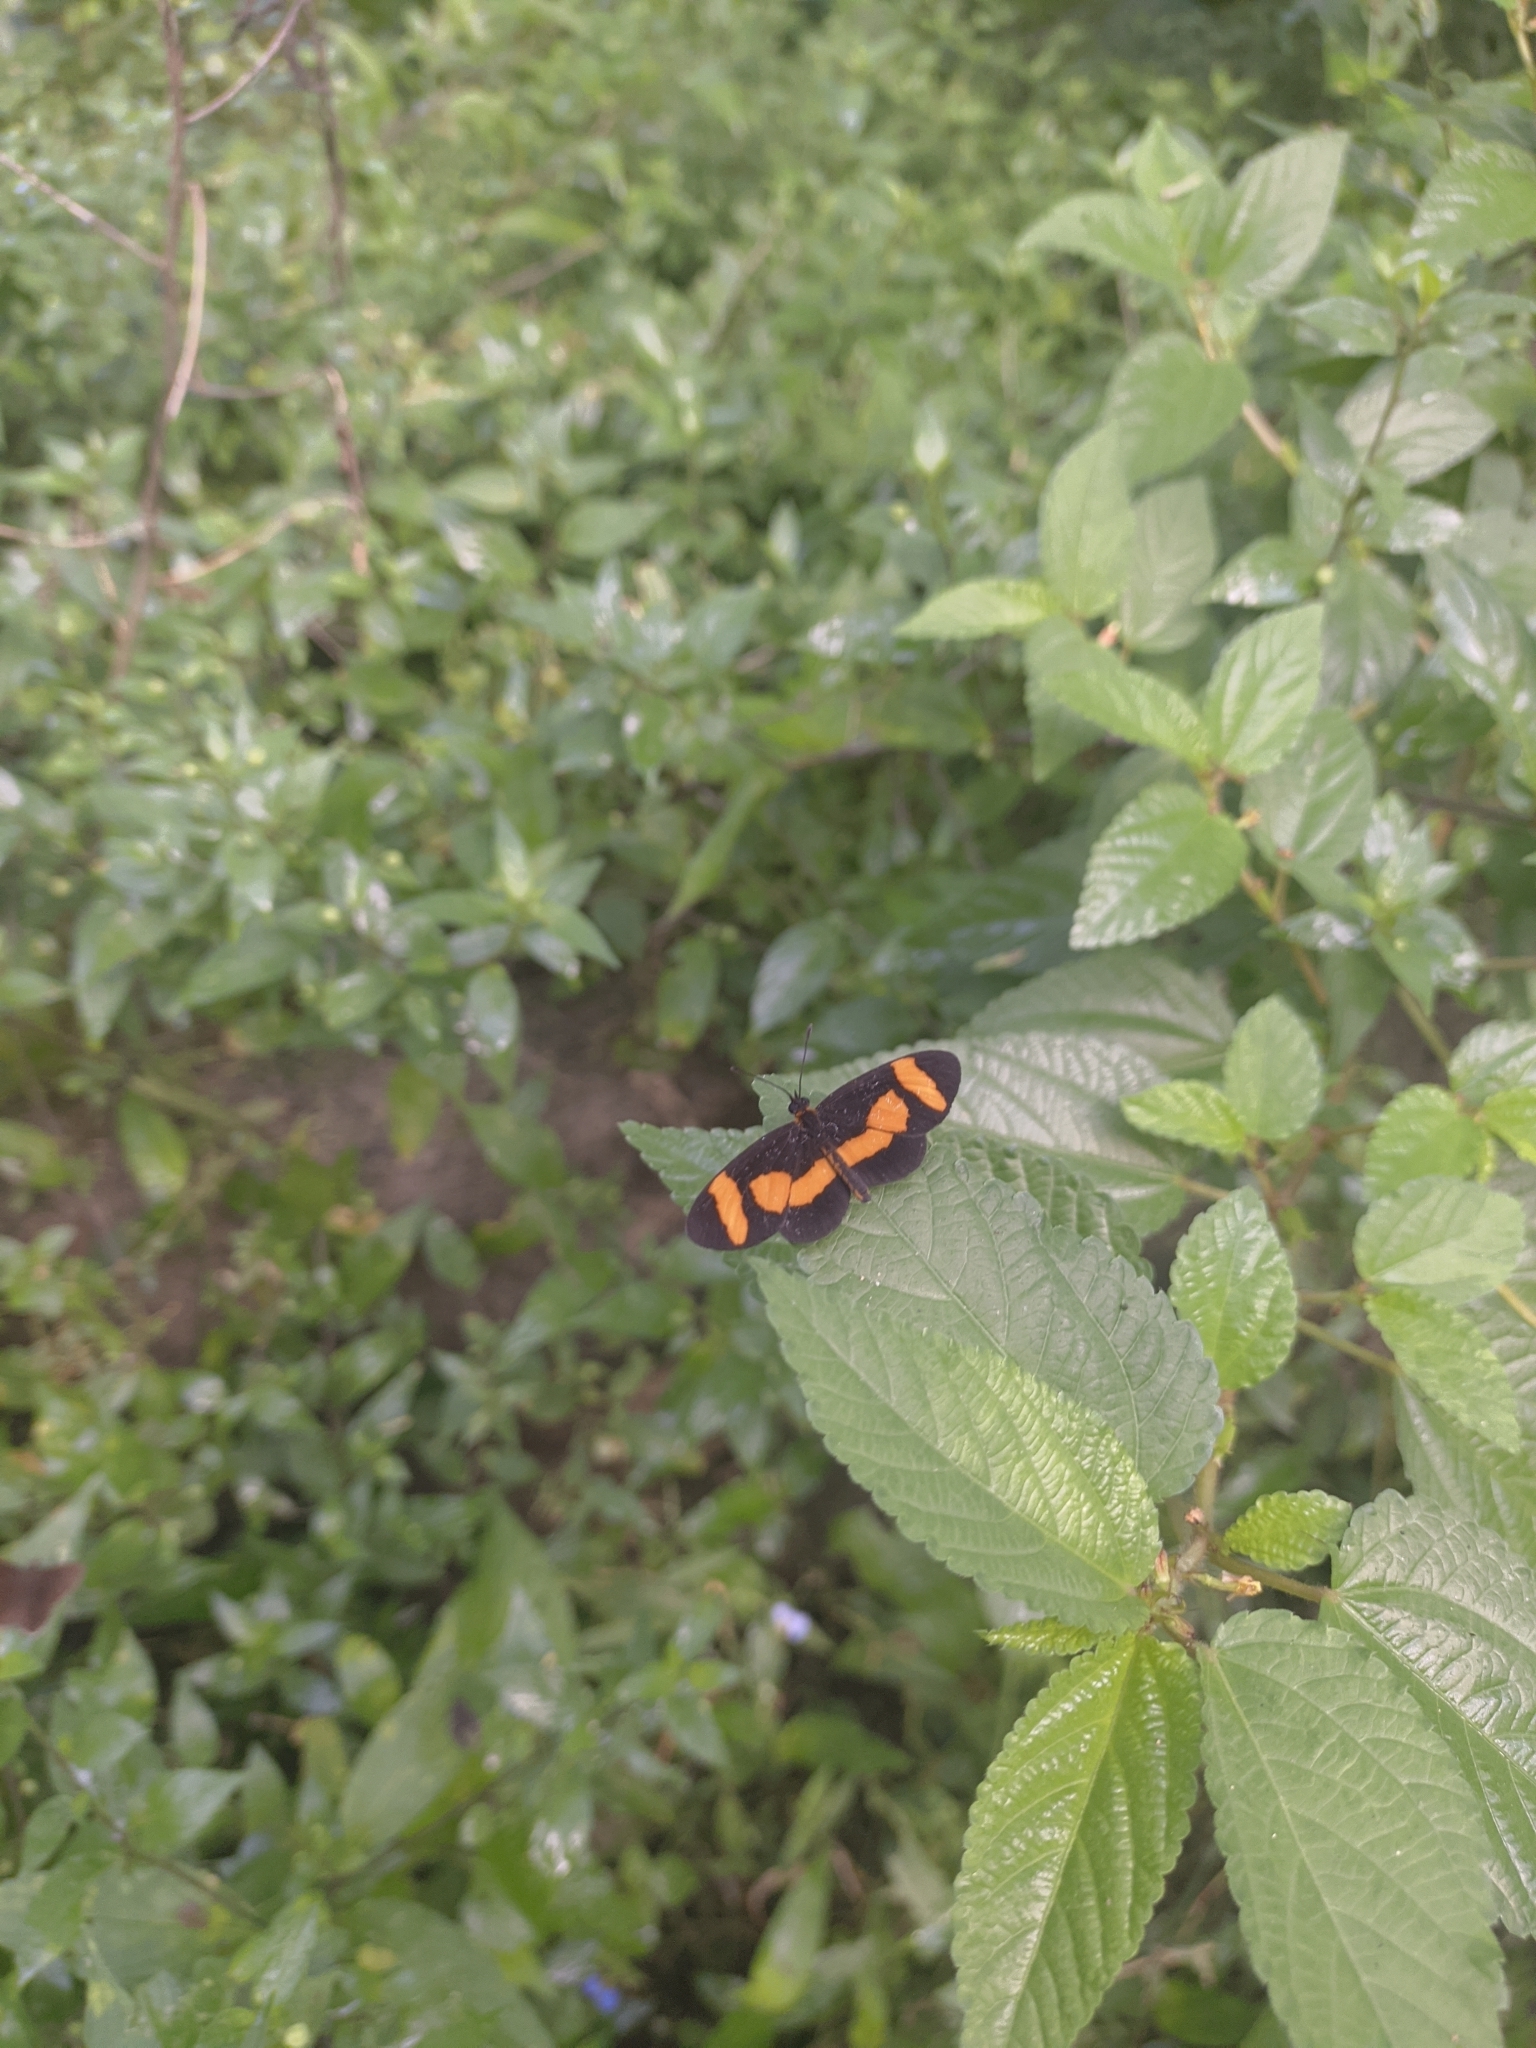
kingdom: Animalia
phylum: Arthropoda
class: Insecta
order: Lepidoptera
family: Nymphalidae
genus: Microtia
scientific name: Microtia elva
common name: Elf
